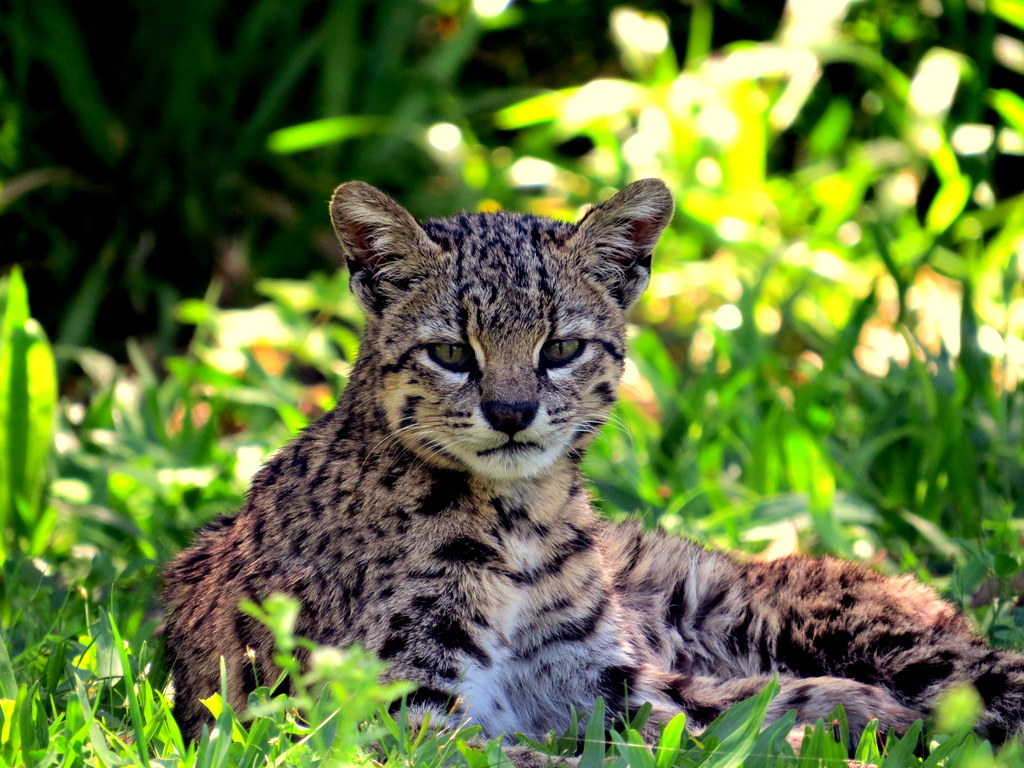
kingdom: Animalia
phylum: Chordata
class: Mammalia
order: Carnivora
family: Felidae
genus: Leopardus
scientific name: Leopardus geoffroyi
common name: Geoffroy's cat
